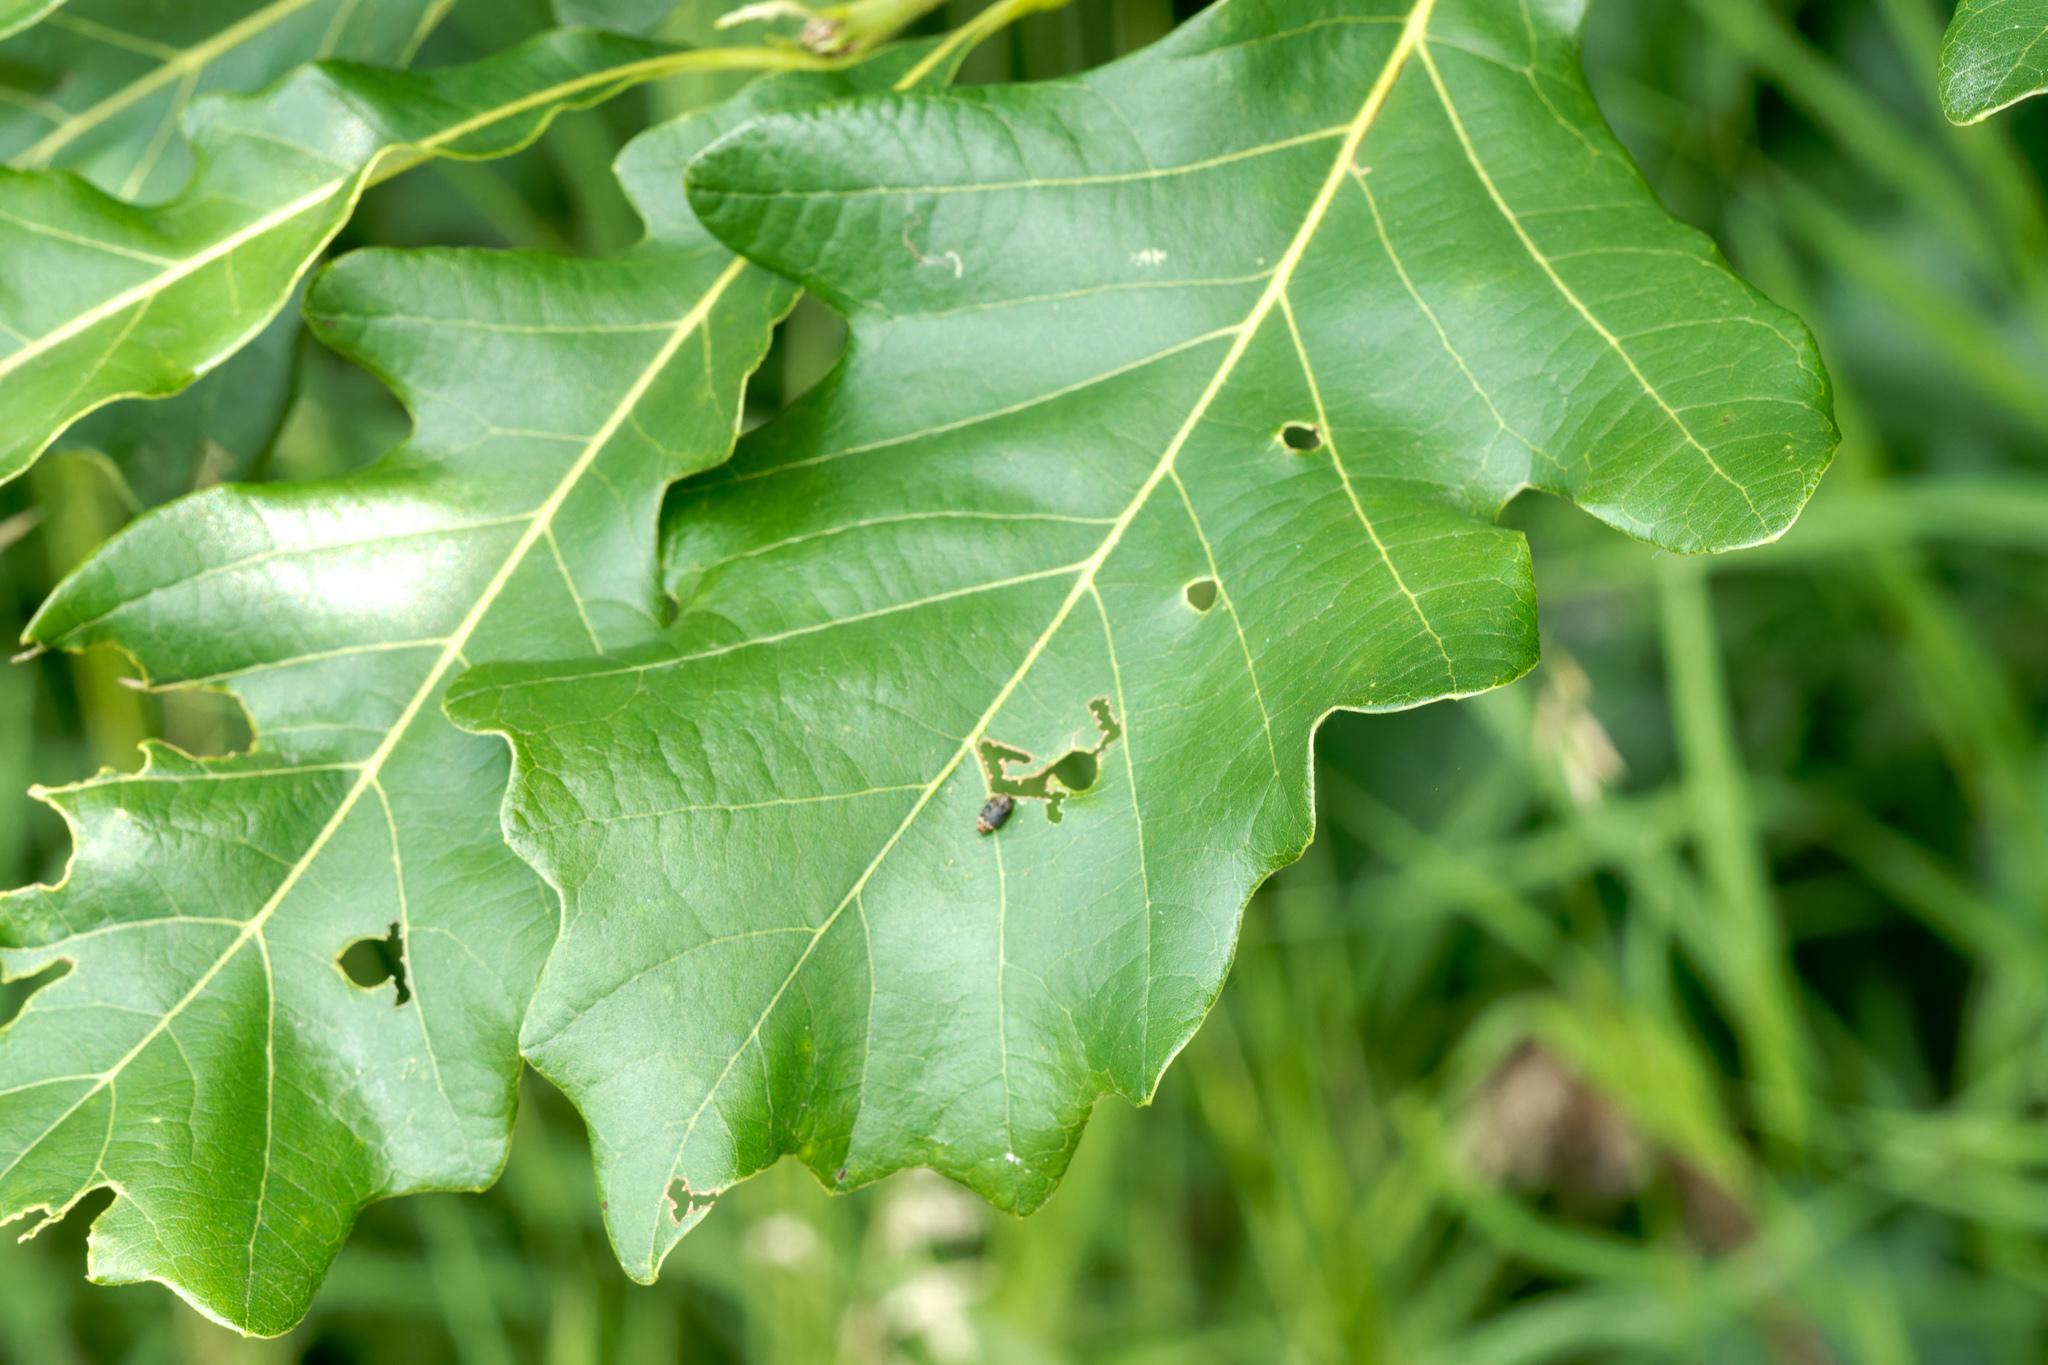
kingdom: Animalia
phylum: Arthropoda
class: Insecta
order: Coleoptera
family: Buprestidae
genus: Brachys
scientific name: Brachys aerosus
